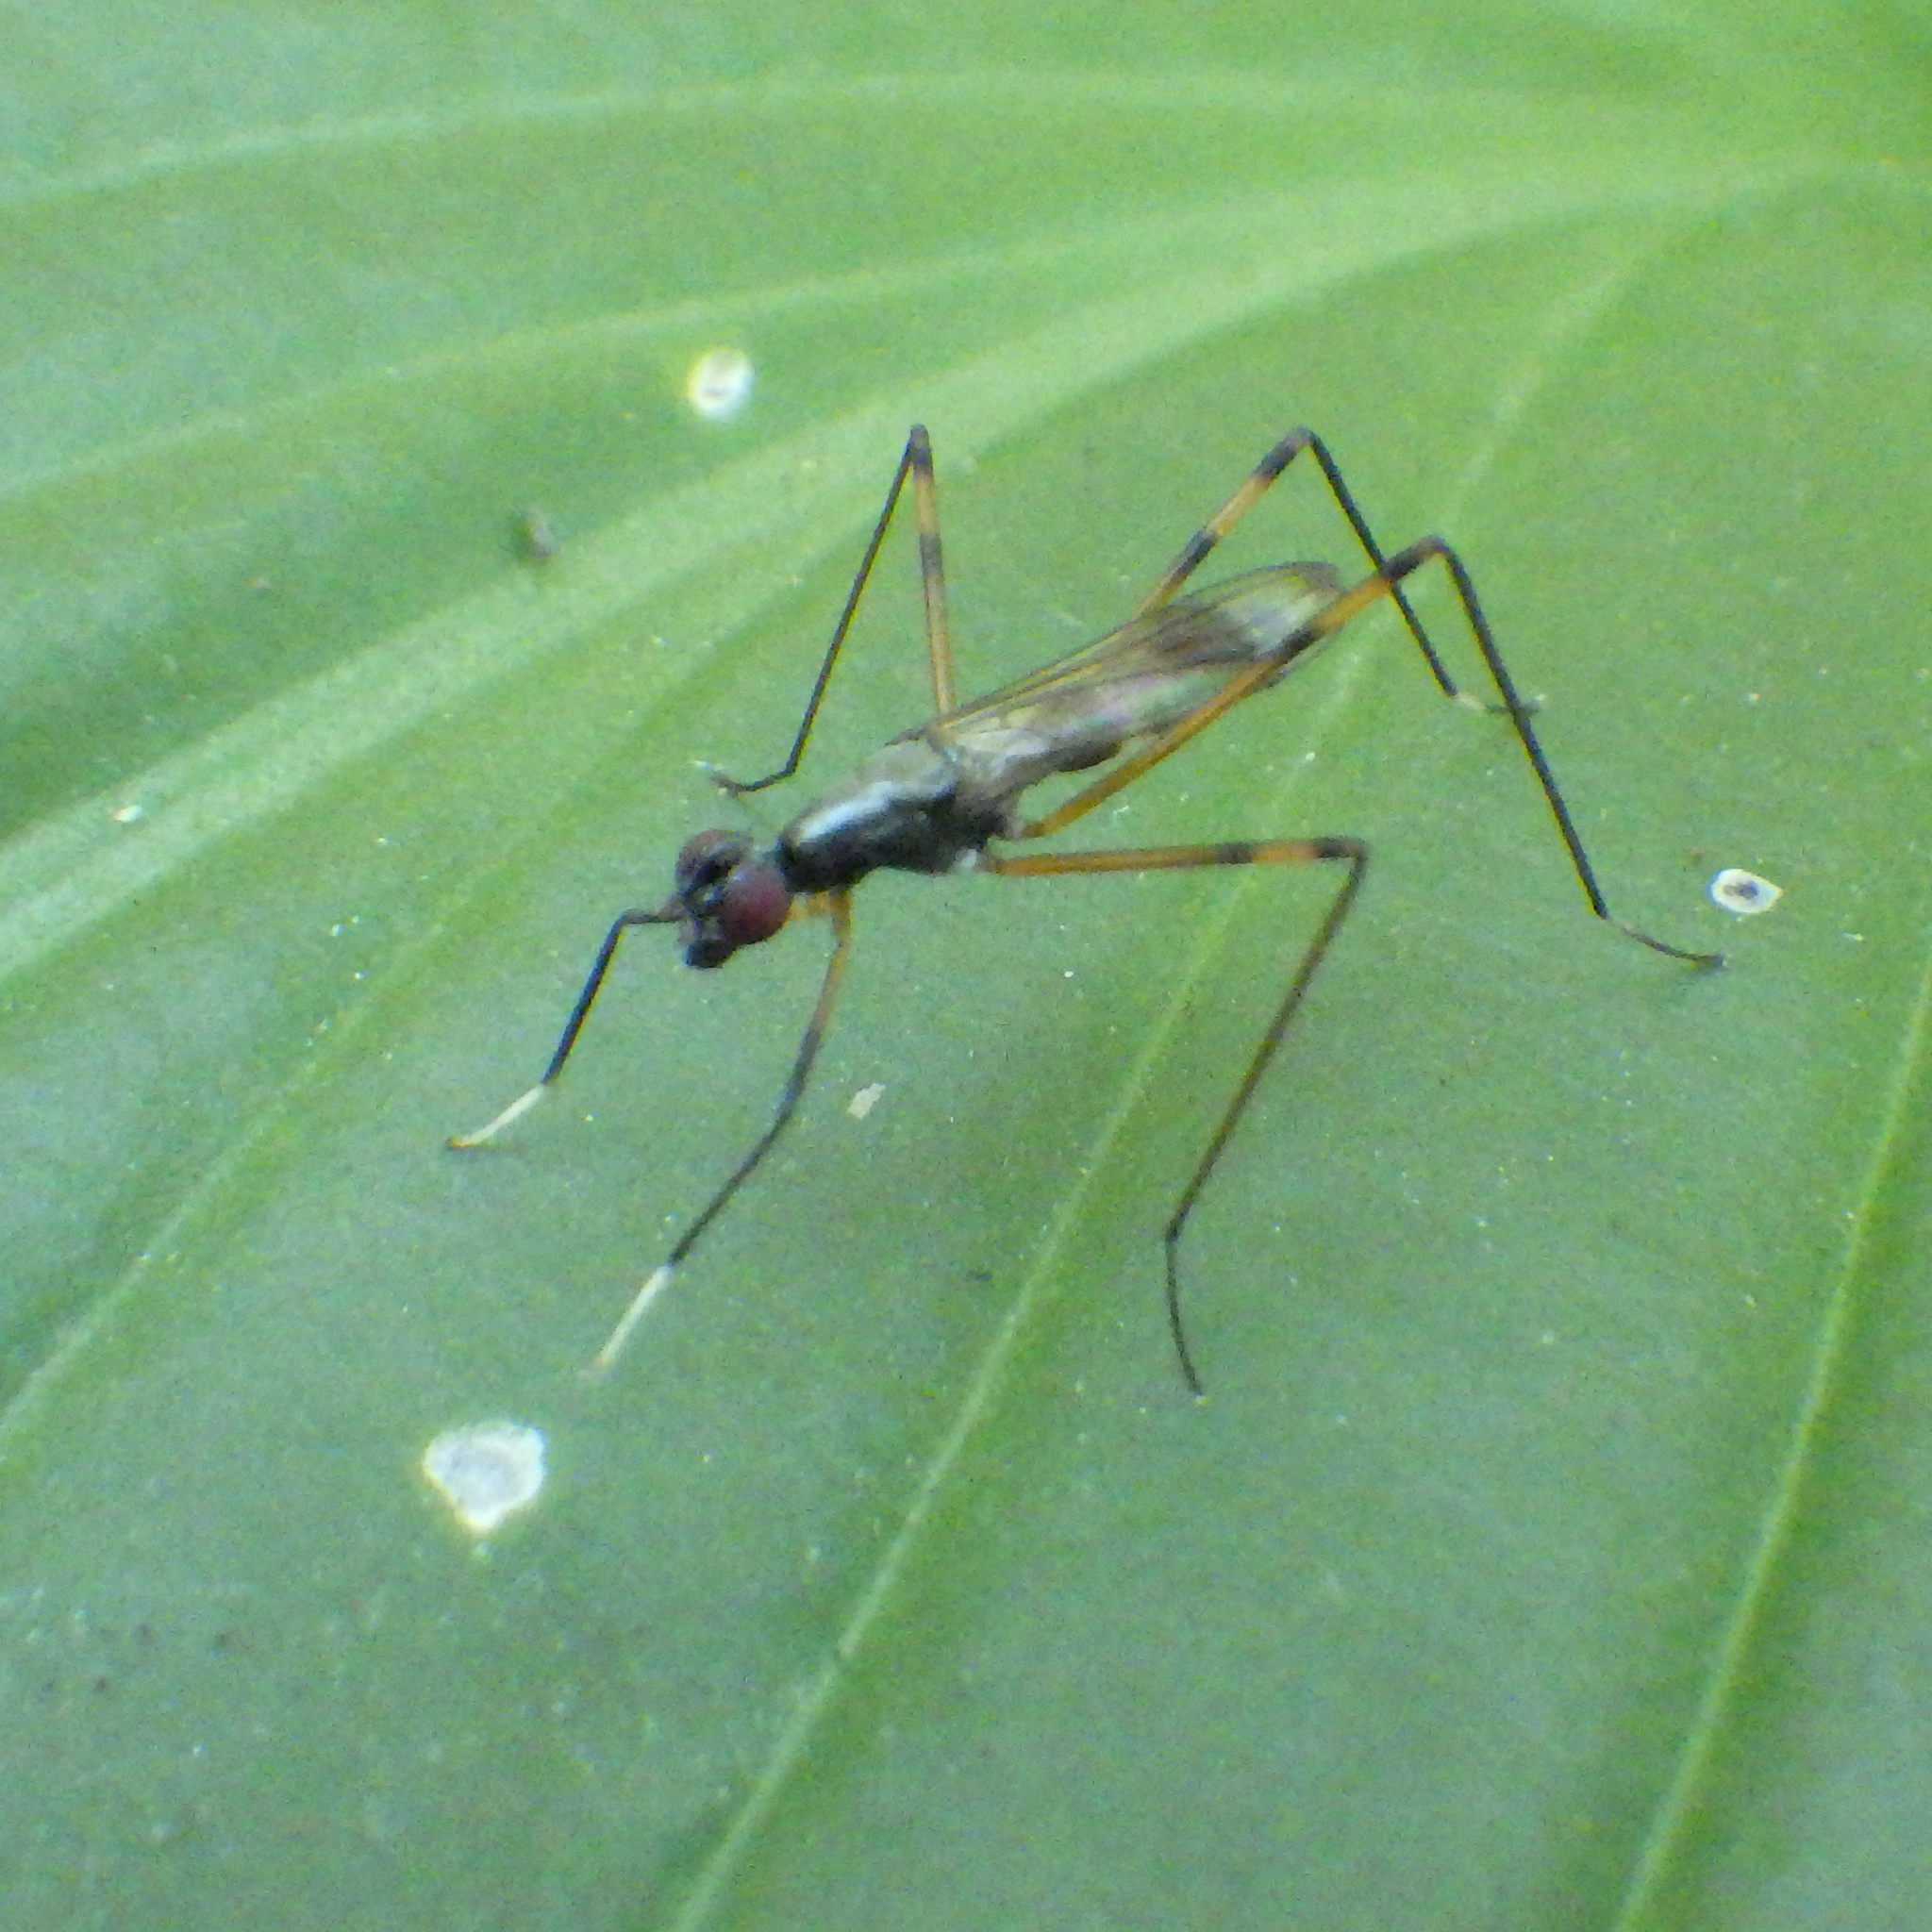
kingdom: Animalia
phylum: Arthropoda
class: Insecta
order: Diptera
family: Micropezidae
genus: Rainieria
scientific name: Rainieria antennaepes
